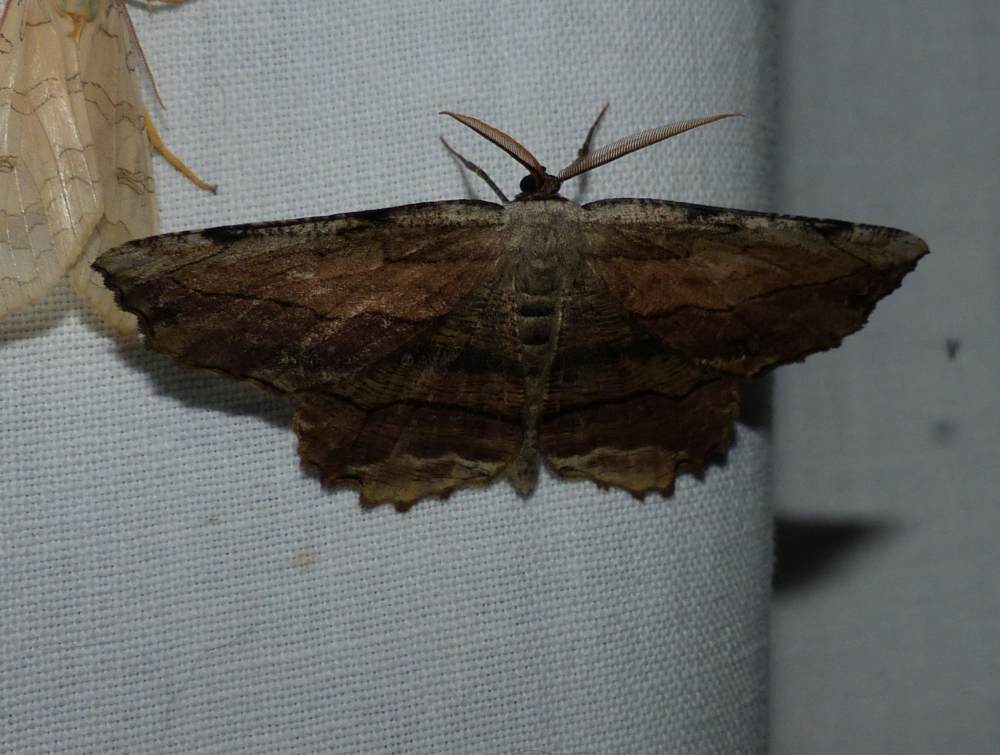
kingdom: Animalia
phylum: Arthropoda
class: Insecta
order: Lepidoptera
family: Geometridae
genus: Lytrosis
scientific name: Lytrosis unitaria
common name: Common lytrosis
